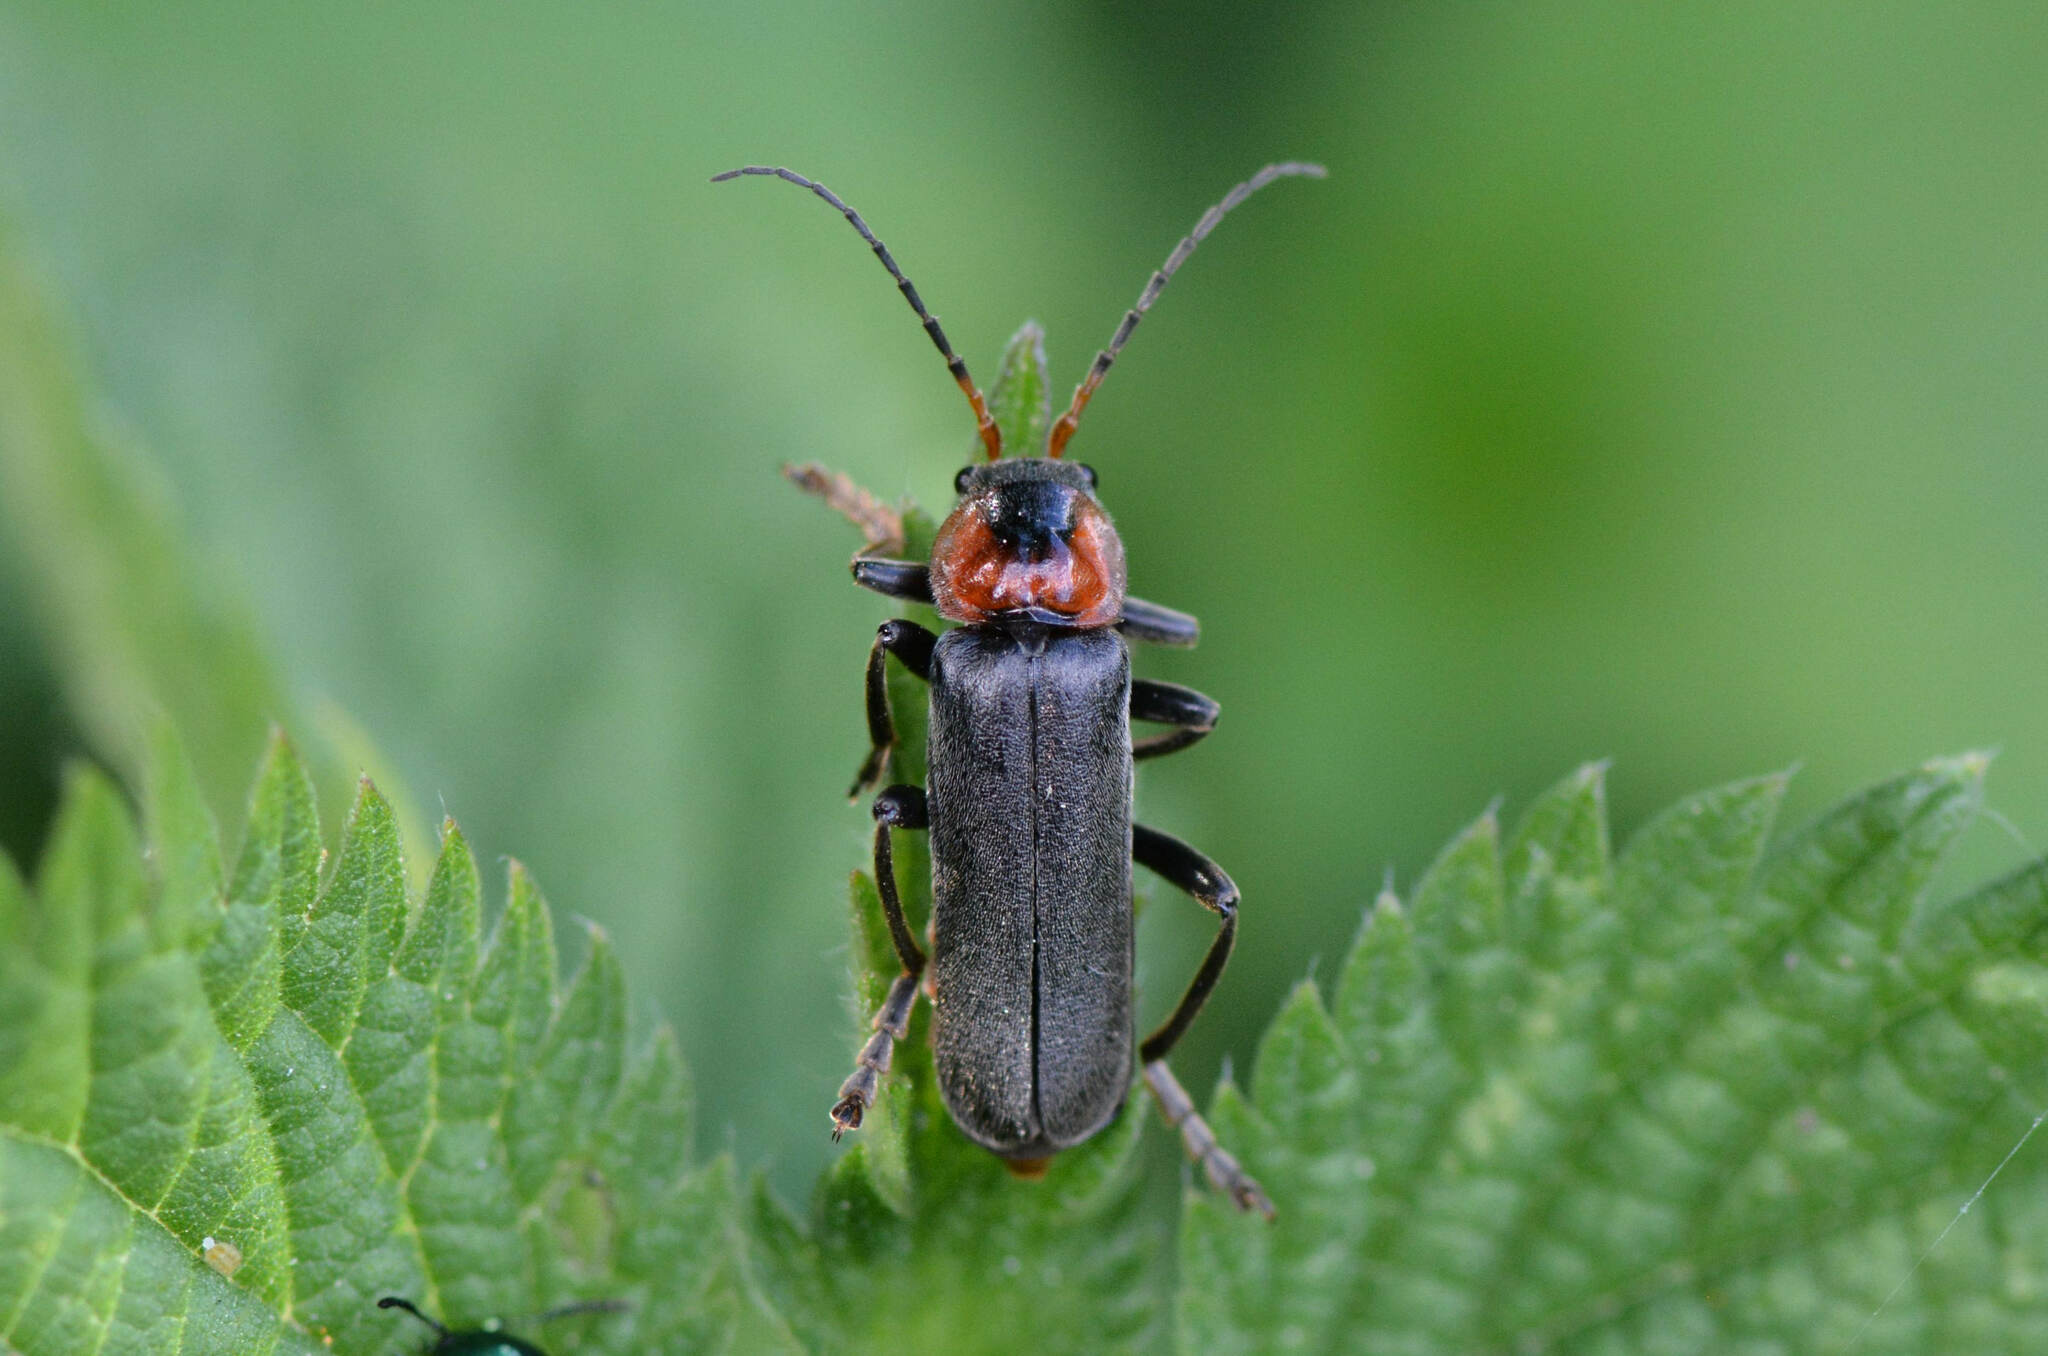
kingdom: Animalia
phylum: Arthropoda
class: Insecta
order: Coleoptera
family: Cantharidae
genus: Cantharis
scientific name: Cantharis fusca
